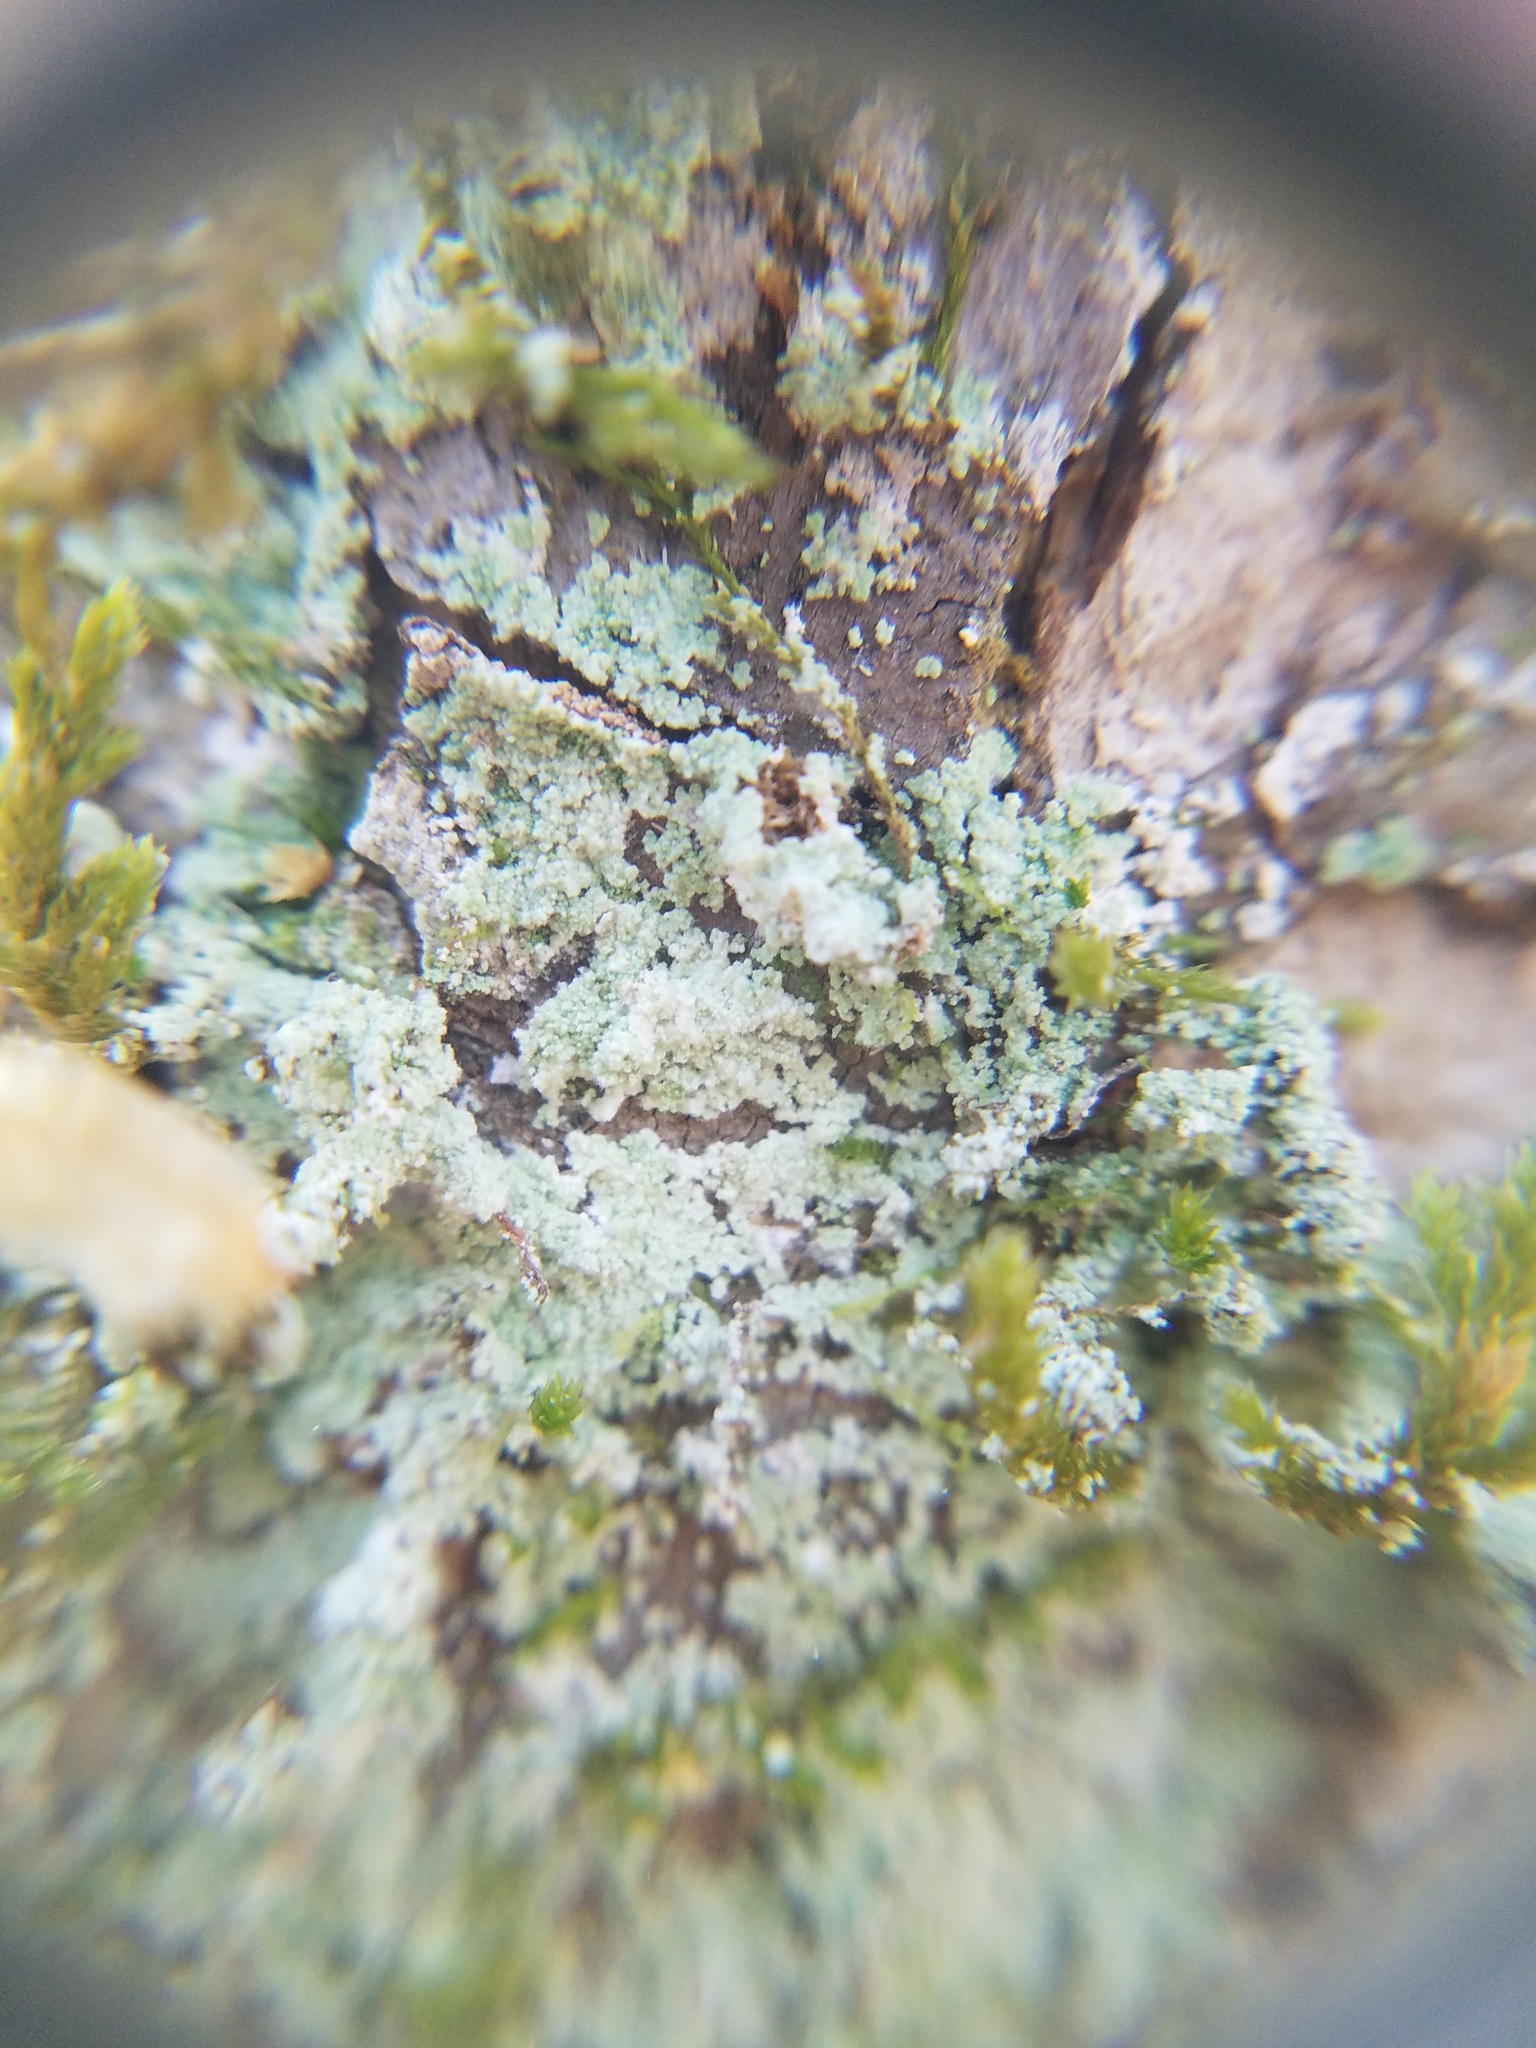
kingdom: Fungi
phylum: Ascomycota
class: Lecanoromycetes
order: Lecanorales
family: Stereocaulaceae
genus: Lepraria
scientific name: Lepraria lobificans
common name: Fluffy dust lichen
